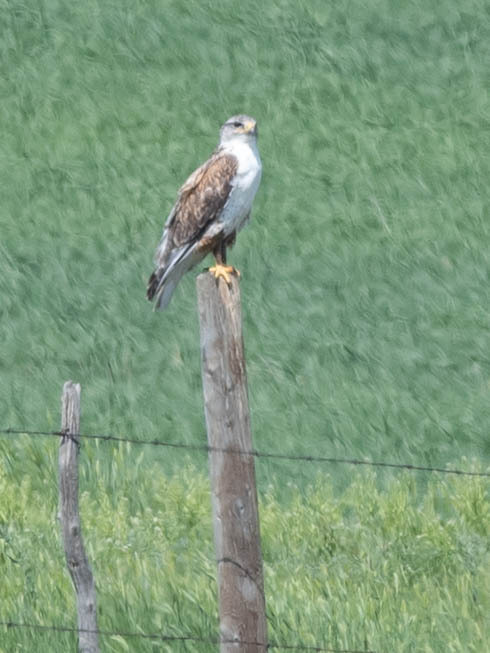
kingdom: Animalia
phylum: Chordata
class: Aves
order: Accipitriformes
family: Accipitridae
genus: Buteo
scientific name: Buteo regalis
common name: Ferruginous hawk
